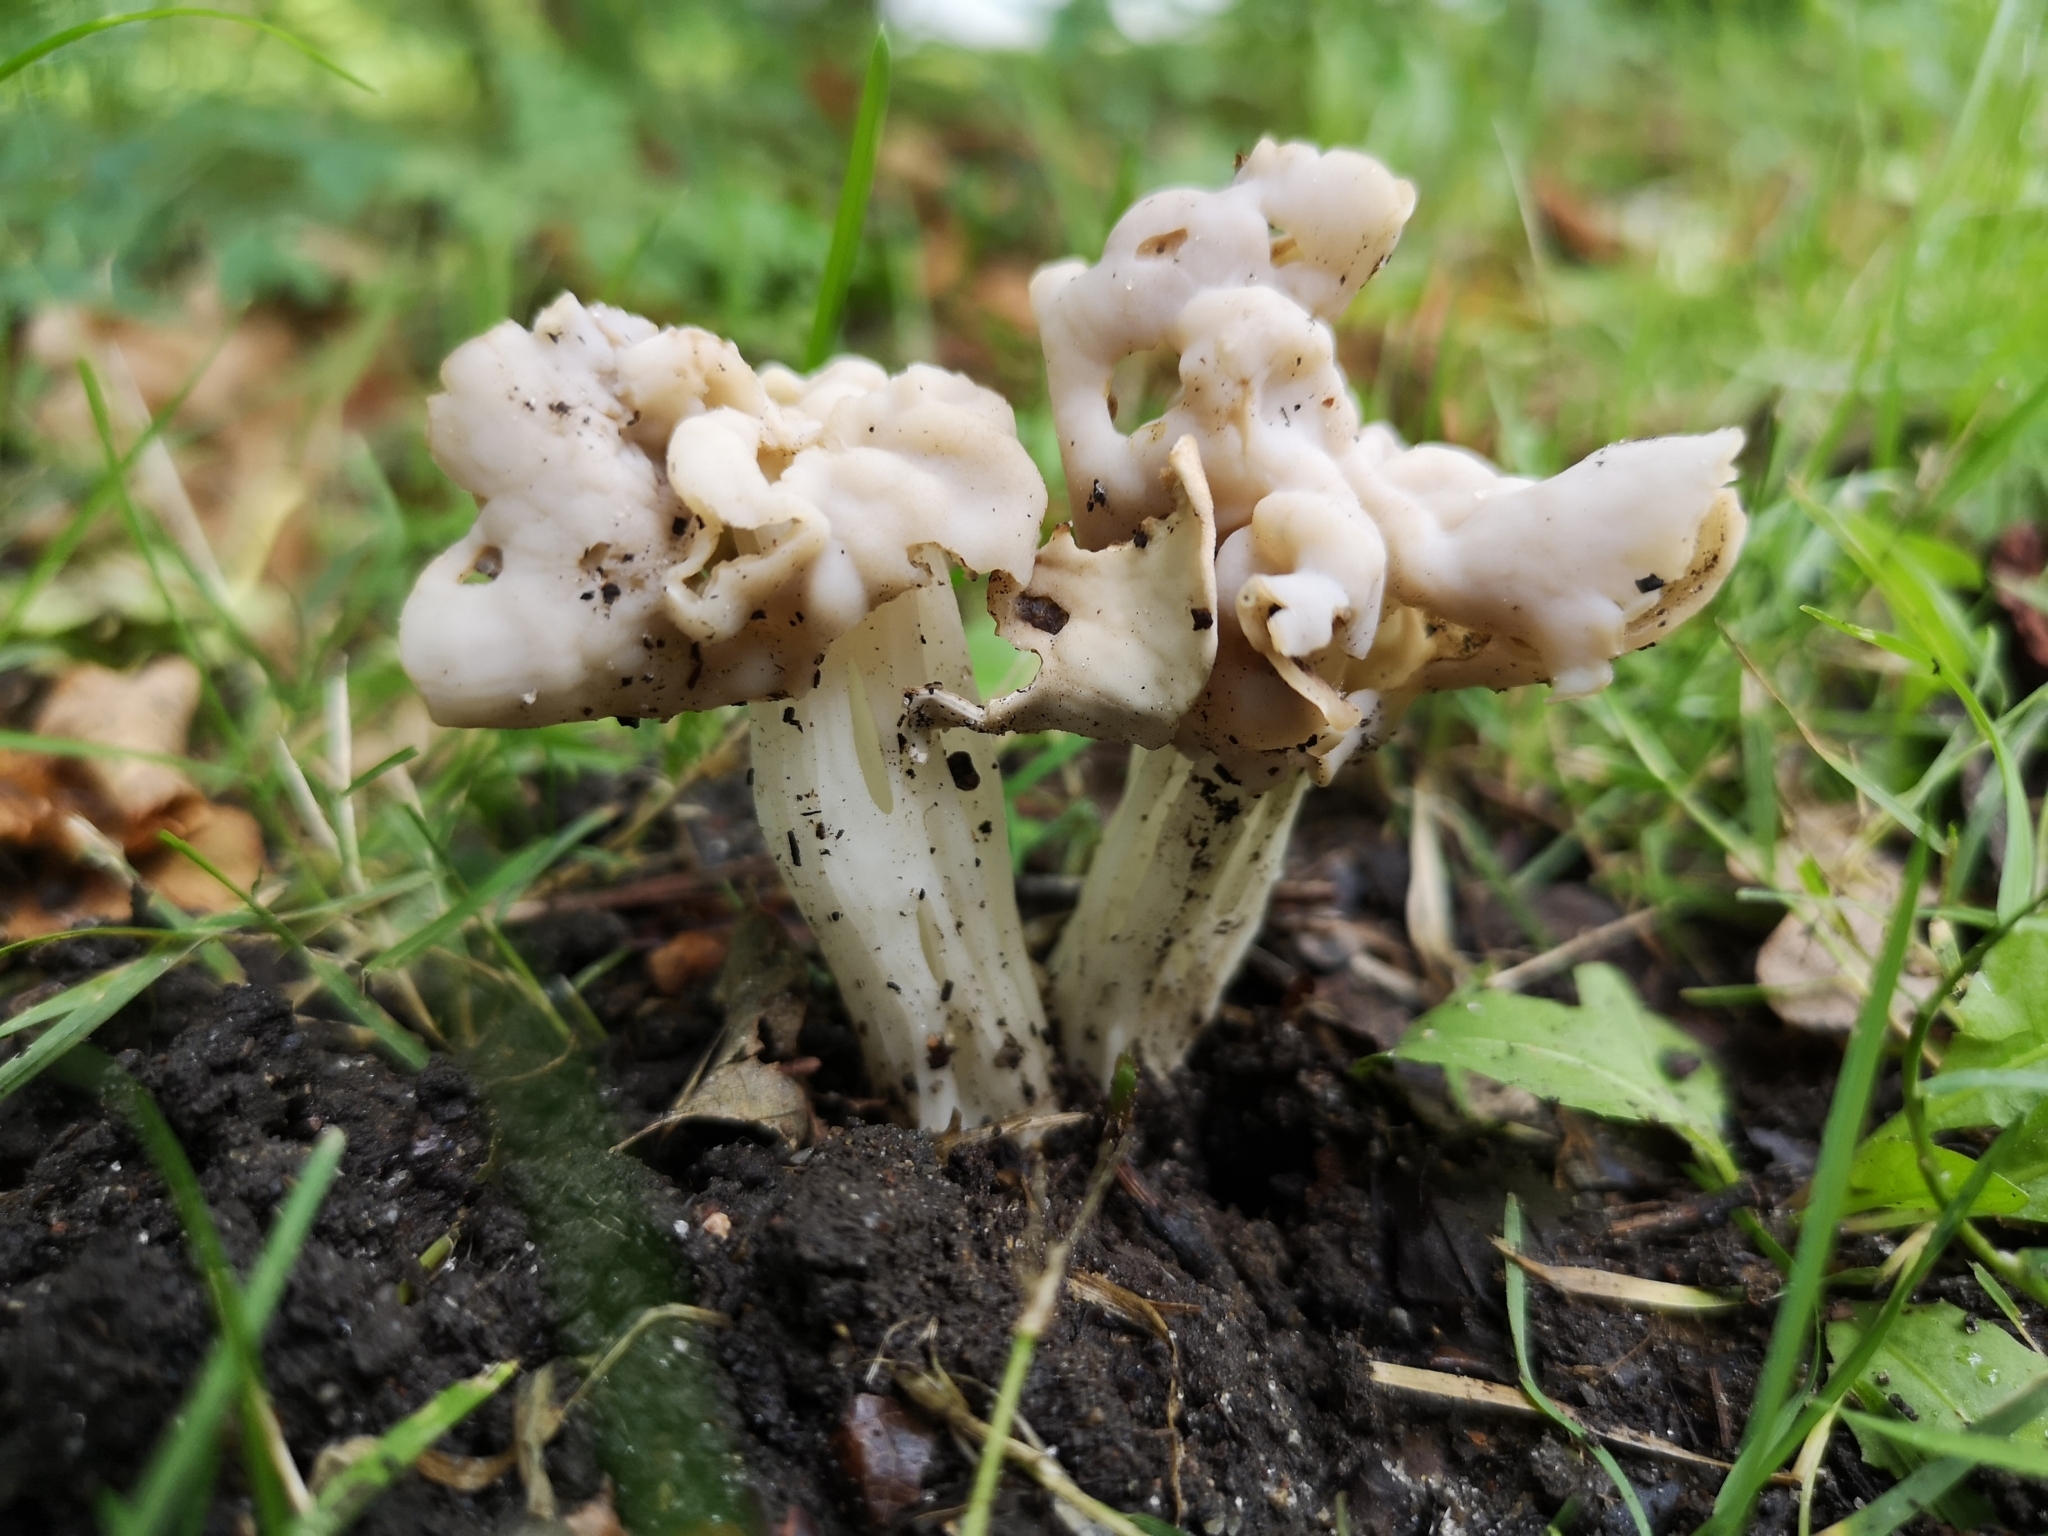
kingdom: Fungi
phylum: Ascomycota
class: Pezizomycetes
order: Pezizales
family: Helvellaceae
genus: Helvella
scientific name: Helvella crispa
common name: White saddle
